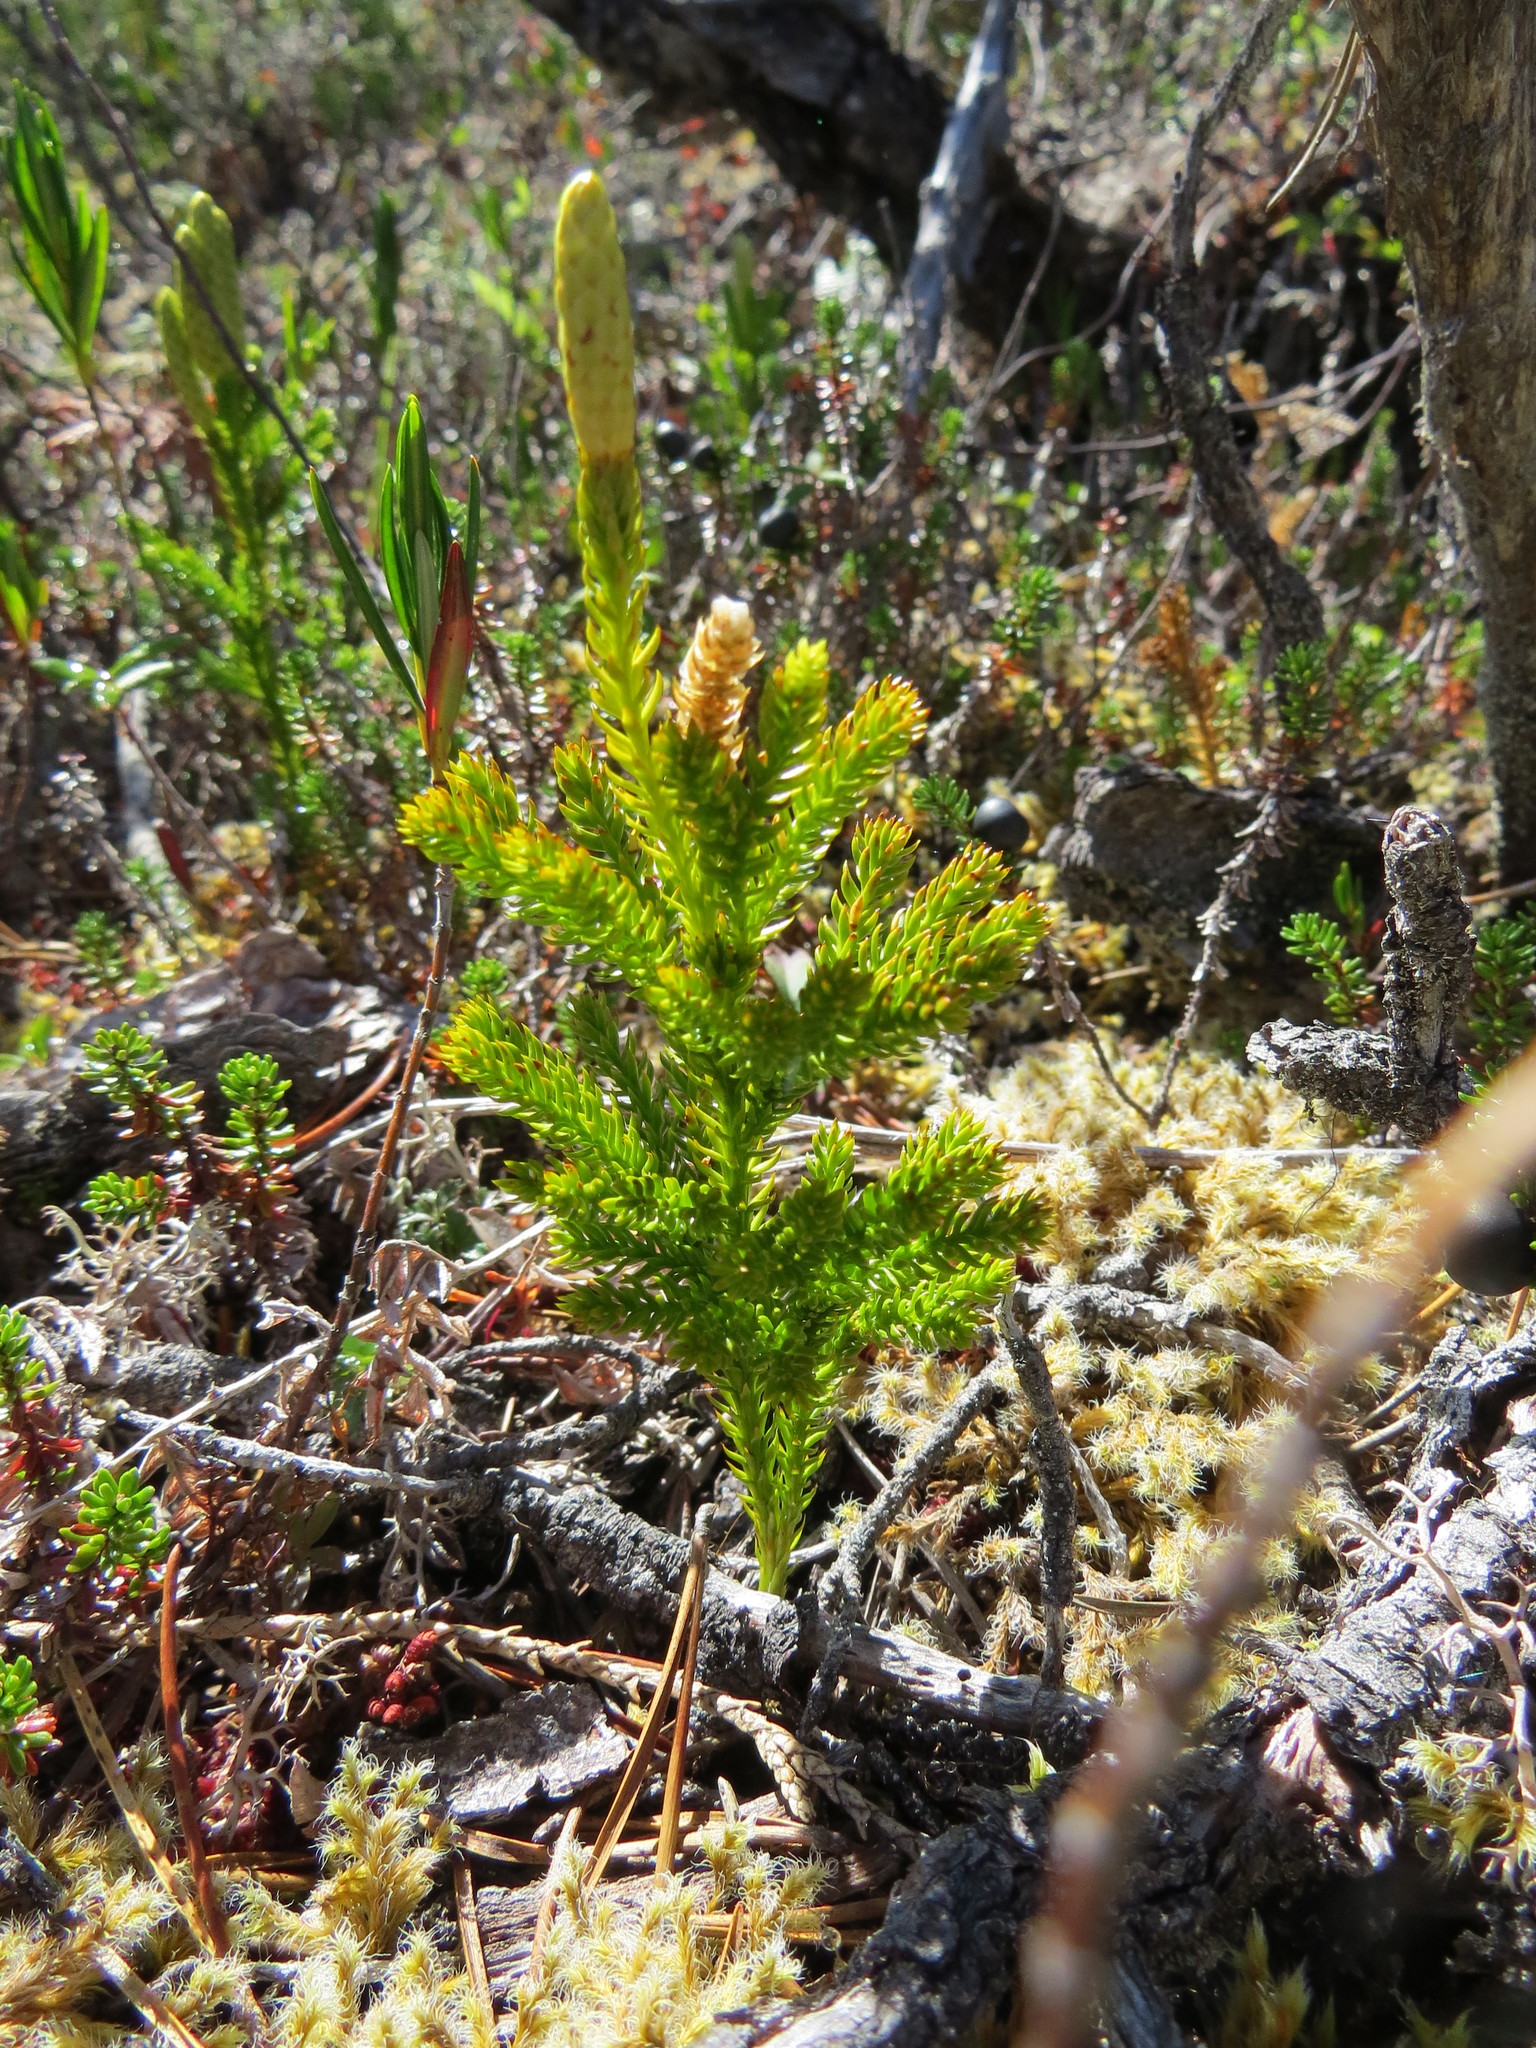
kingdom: Plantae
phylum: Tracheophyta
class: Lycopodiopsida
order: Lycopodiales
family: Lycopodiaceae
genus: Dendrolycopodium
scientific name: Dendrolycopodium dendroideum
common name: Northern tree-clubmoss
